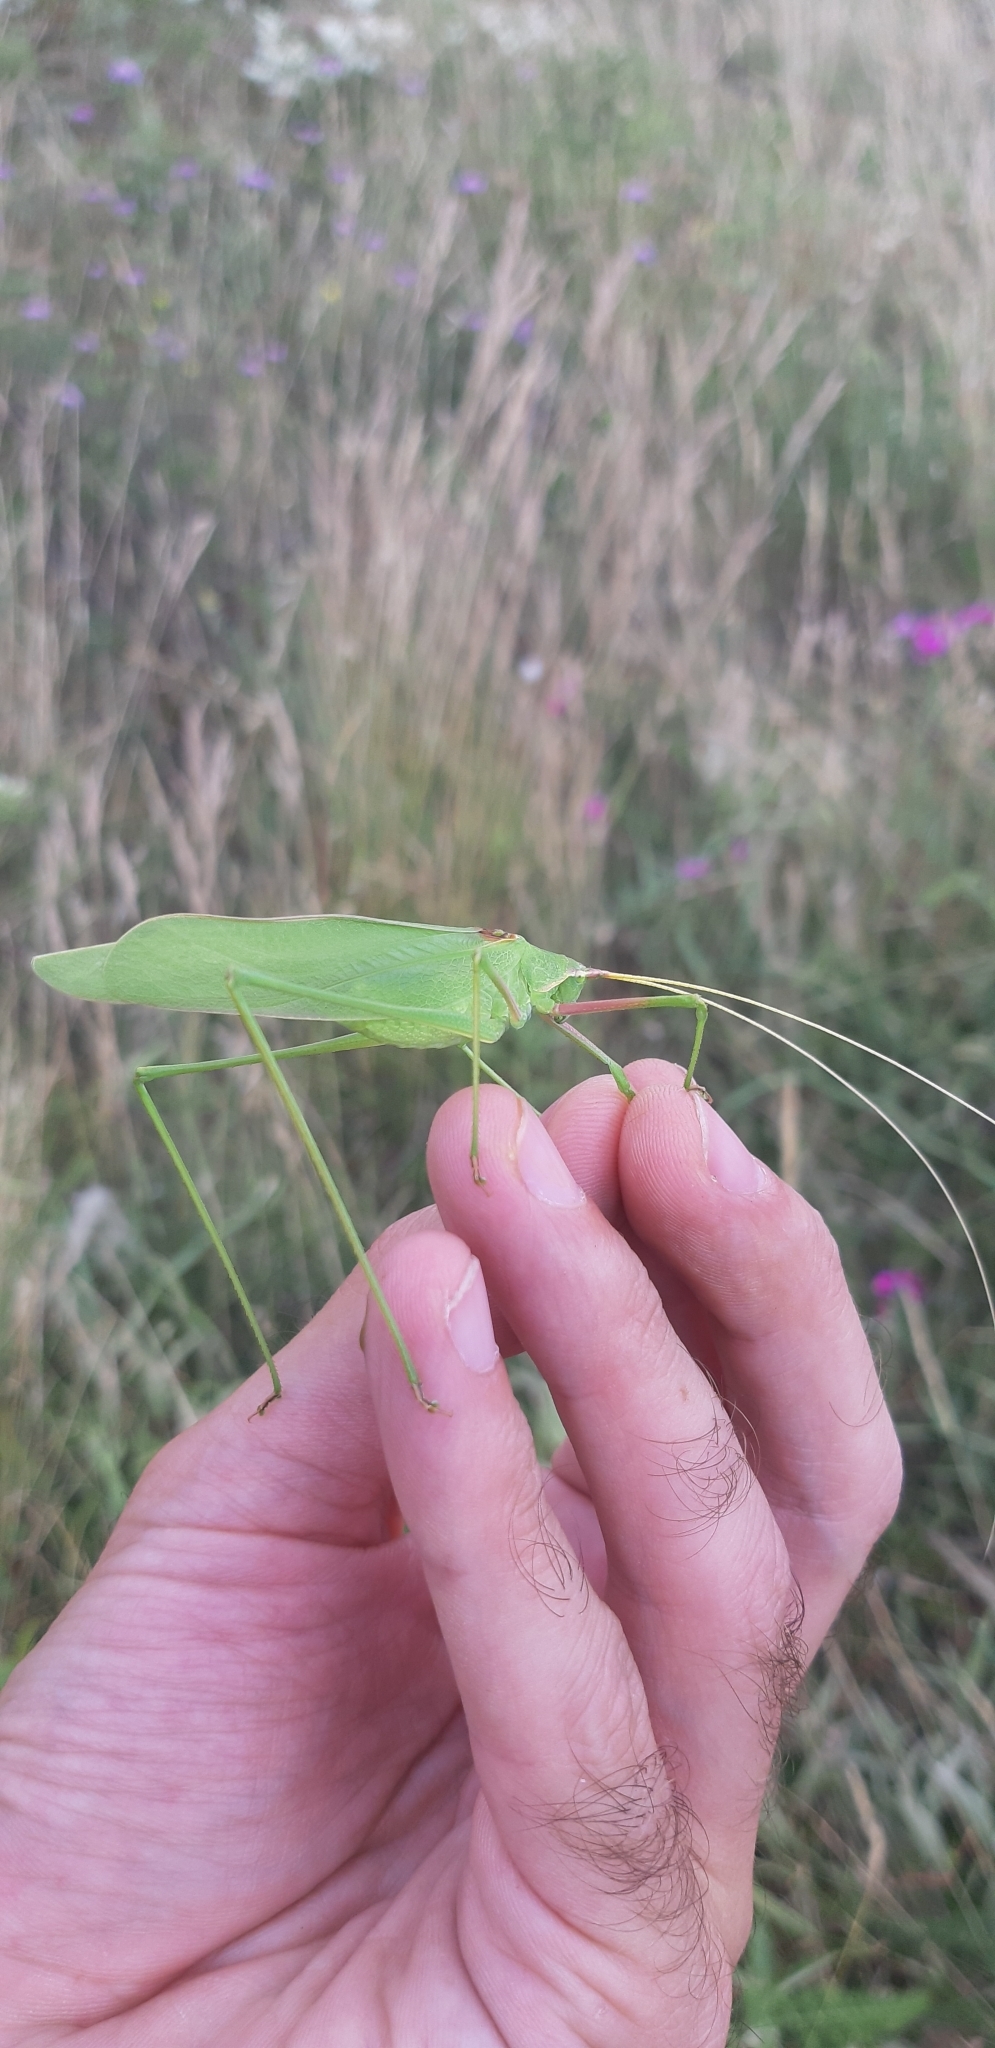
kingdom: Animalia
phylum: Arthropoda
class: Insecta
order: Orthoptera
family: Tettigoniidae
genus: Acrometopa
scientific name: Acrometopa italica
